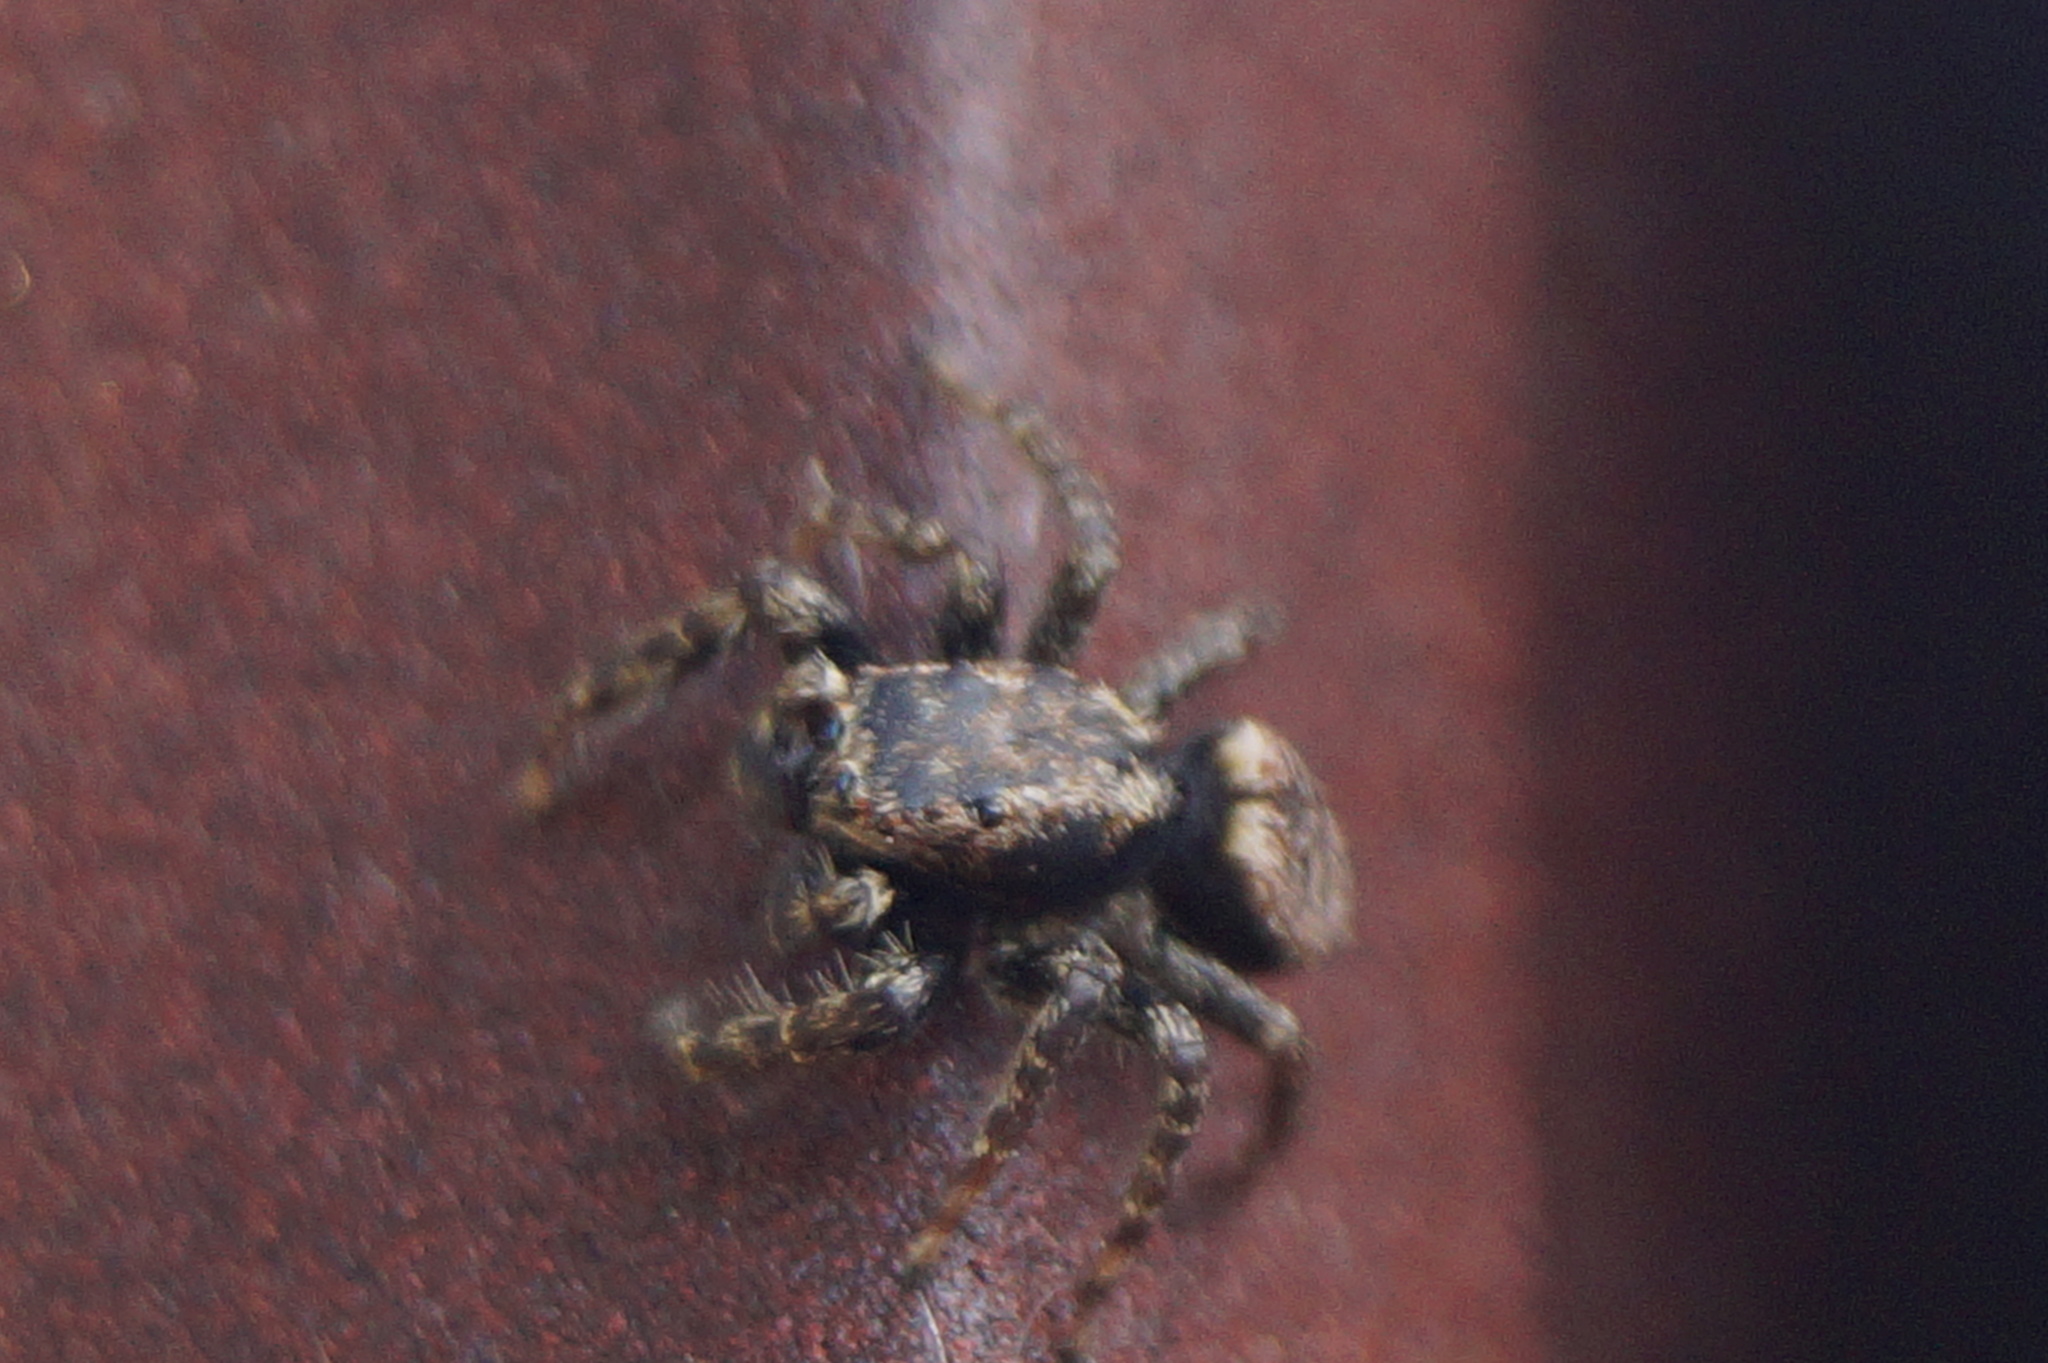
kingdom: Animalia
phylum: Arthropoda
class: Arachnida
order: Araneae
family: Salticidae
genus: Marpissa
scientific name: Marpissa muscosa
